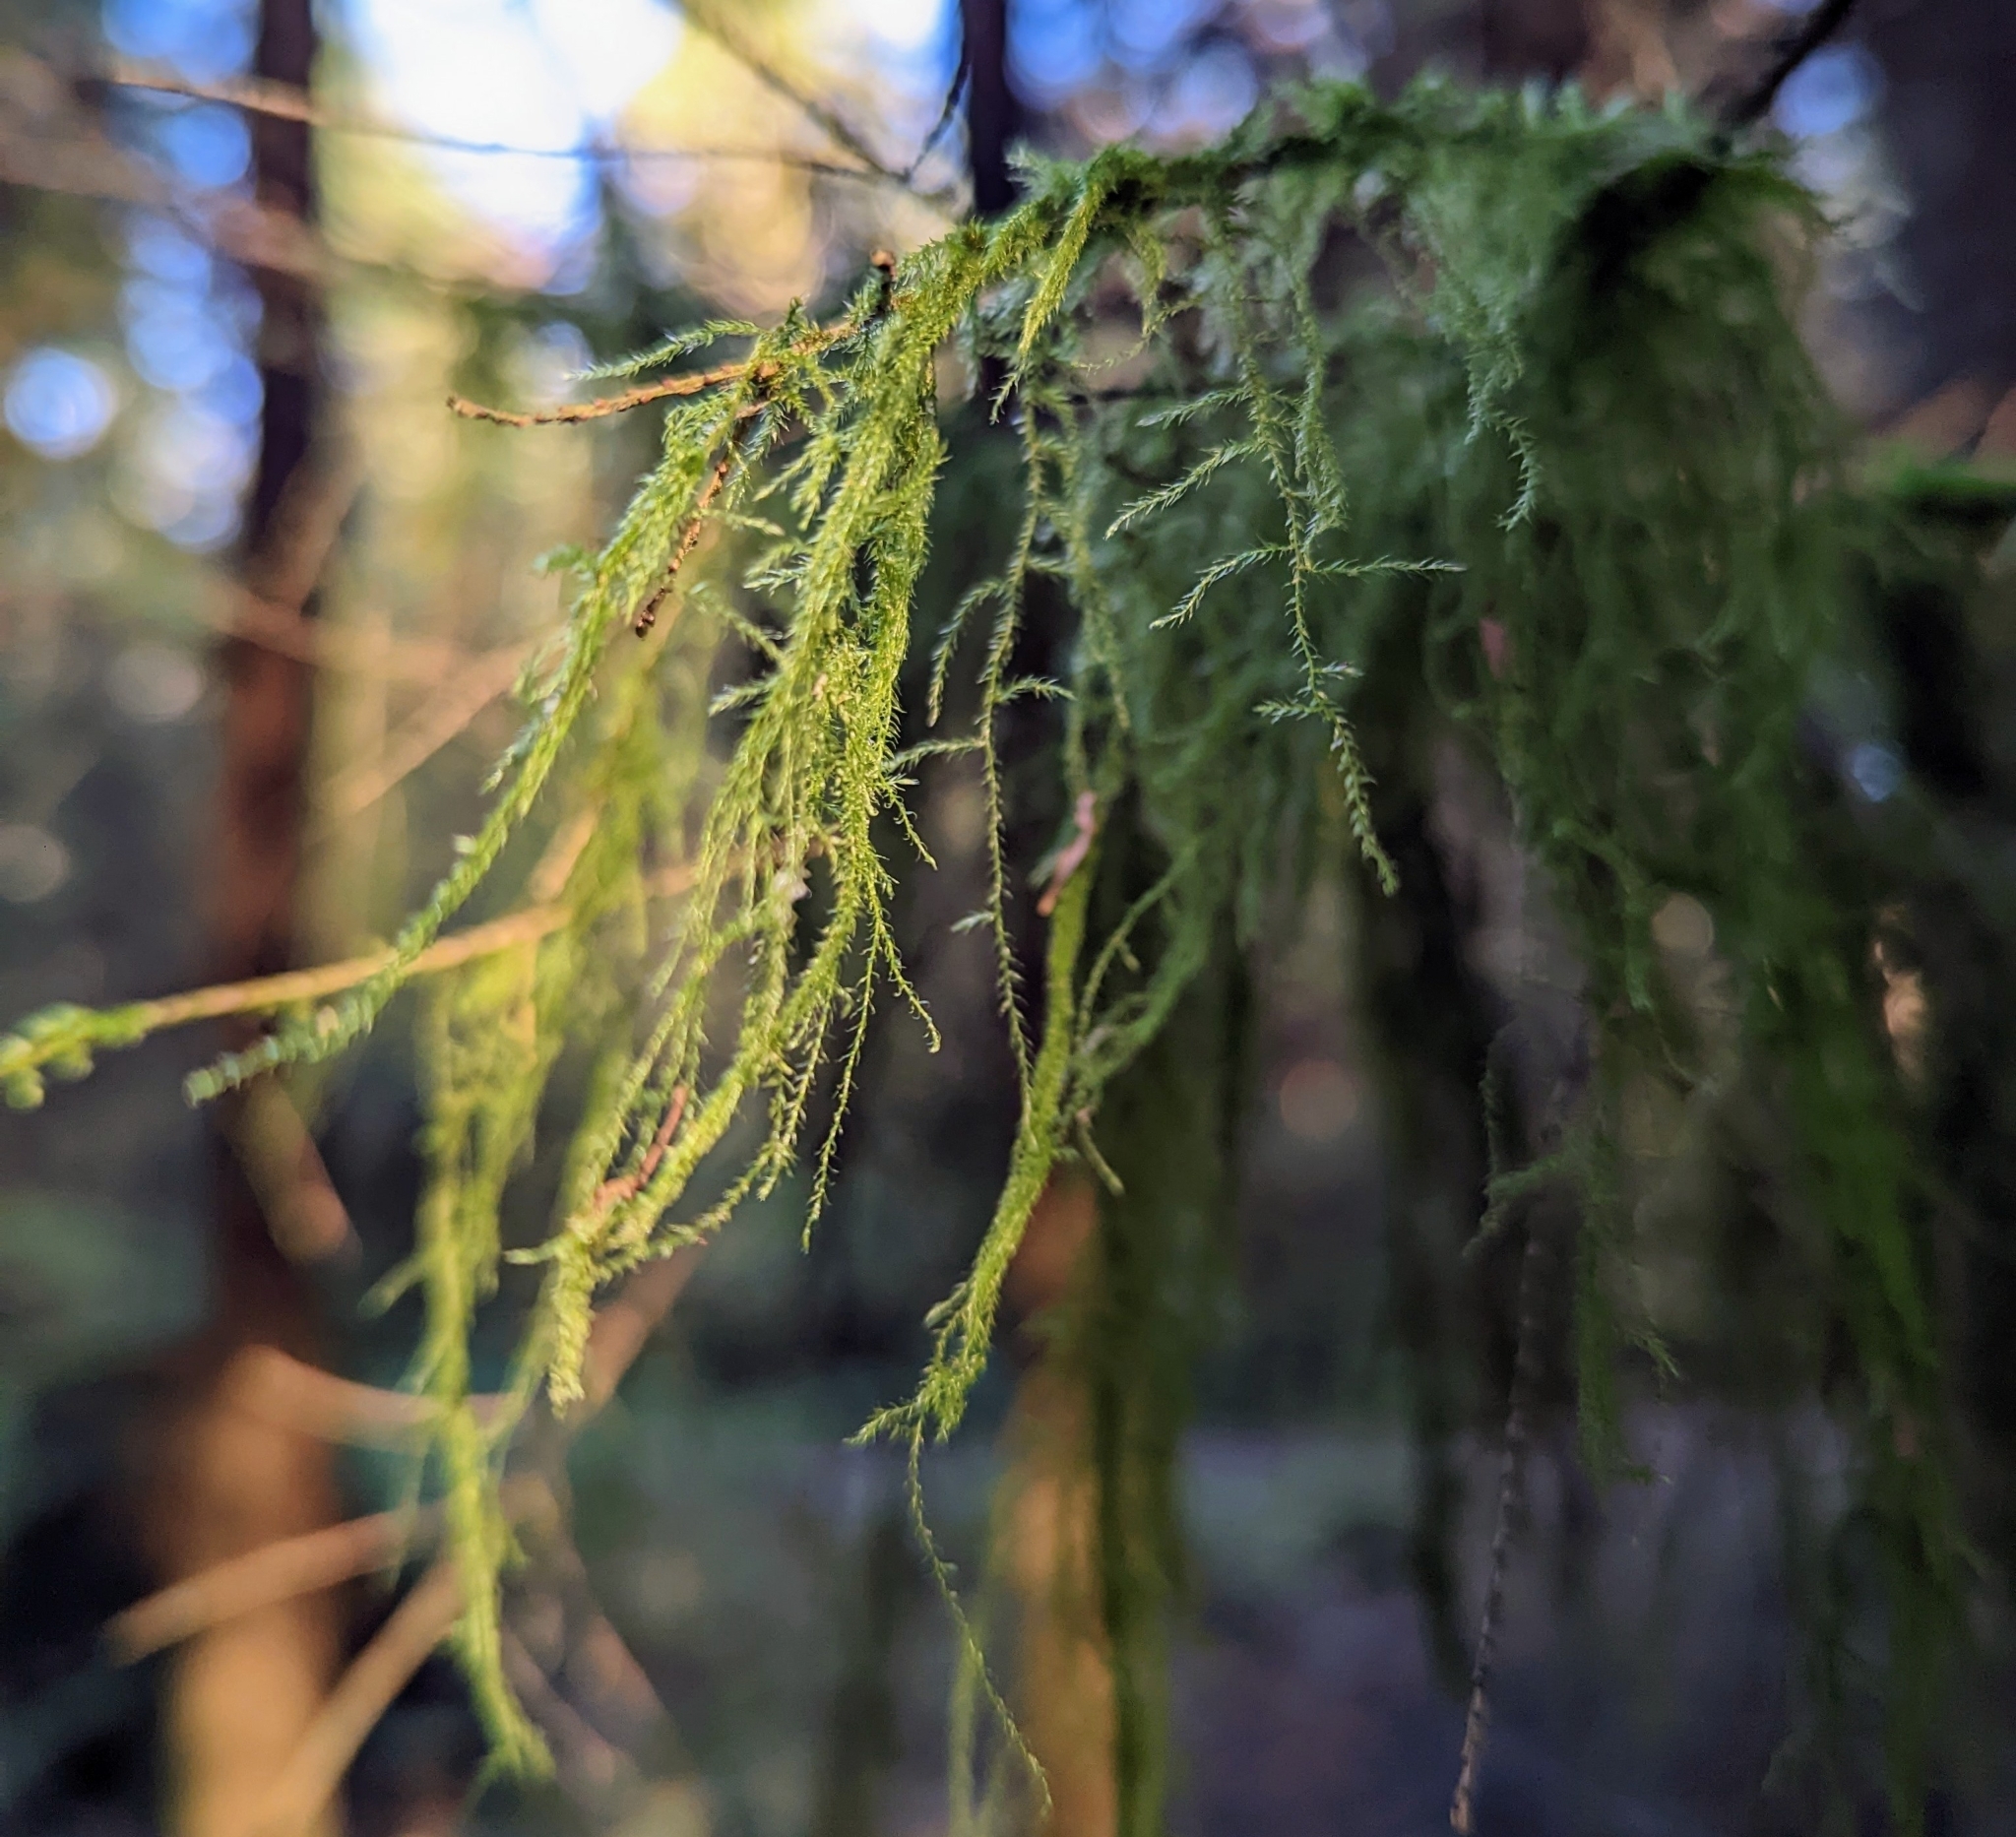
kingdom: Plantae
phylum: Bryophyta
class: Bryopsida
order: Hypnales
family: Lembophyllaceae
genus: Pseudisothecium
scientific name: Pseudisothecium stoloniferum
